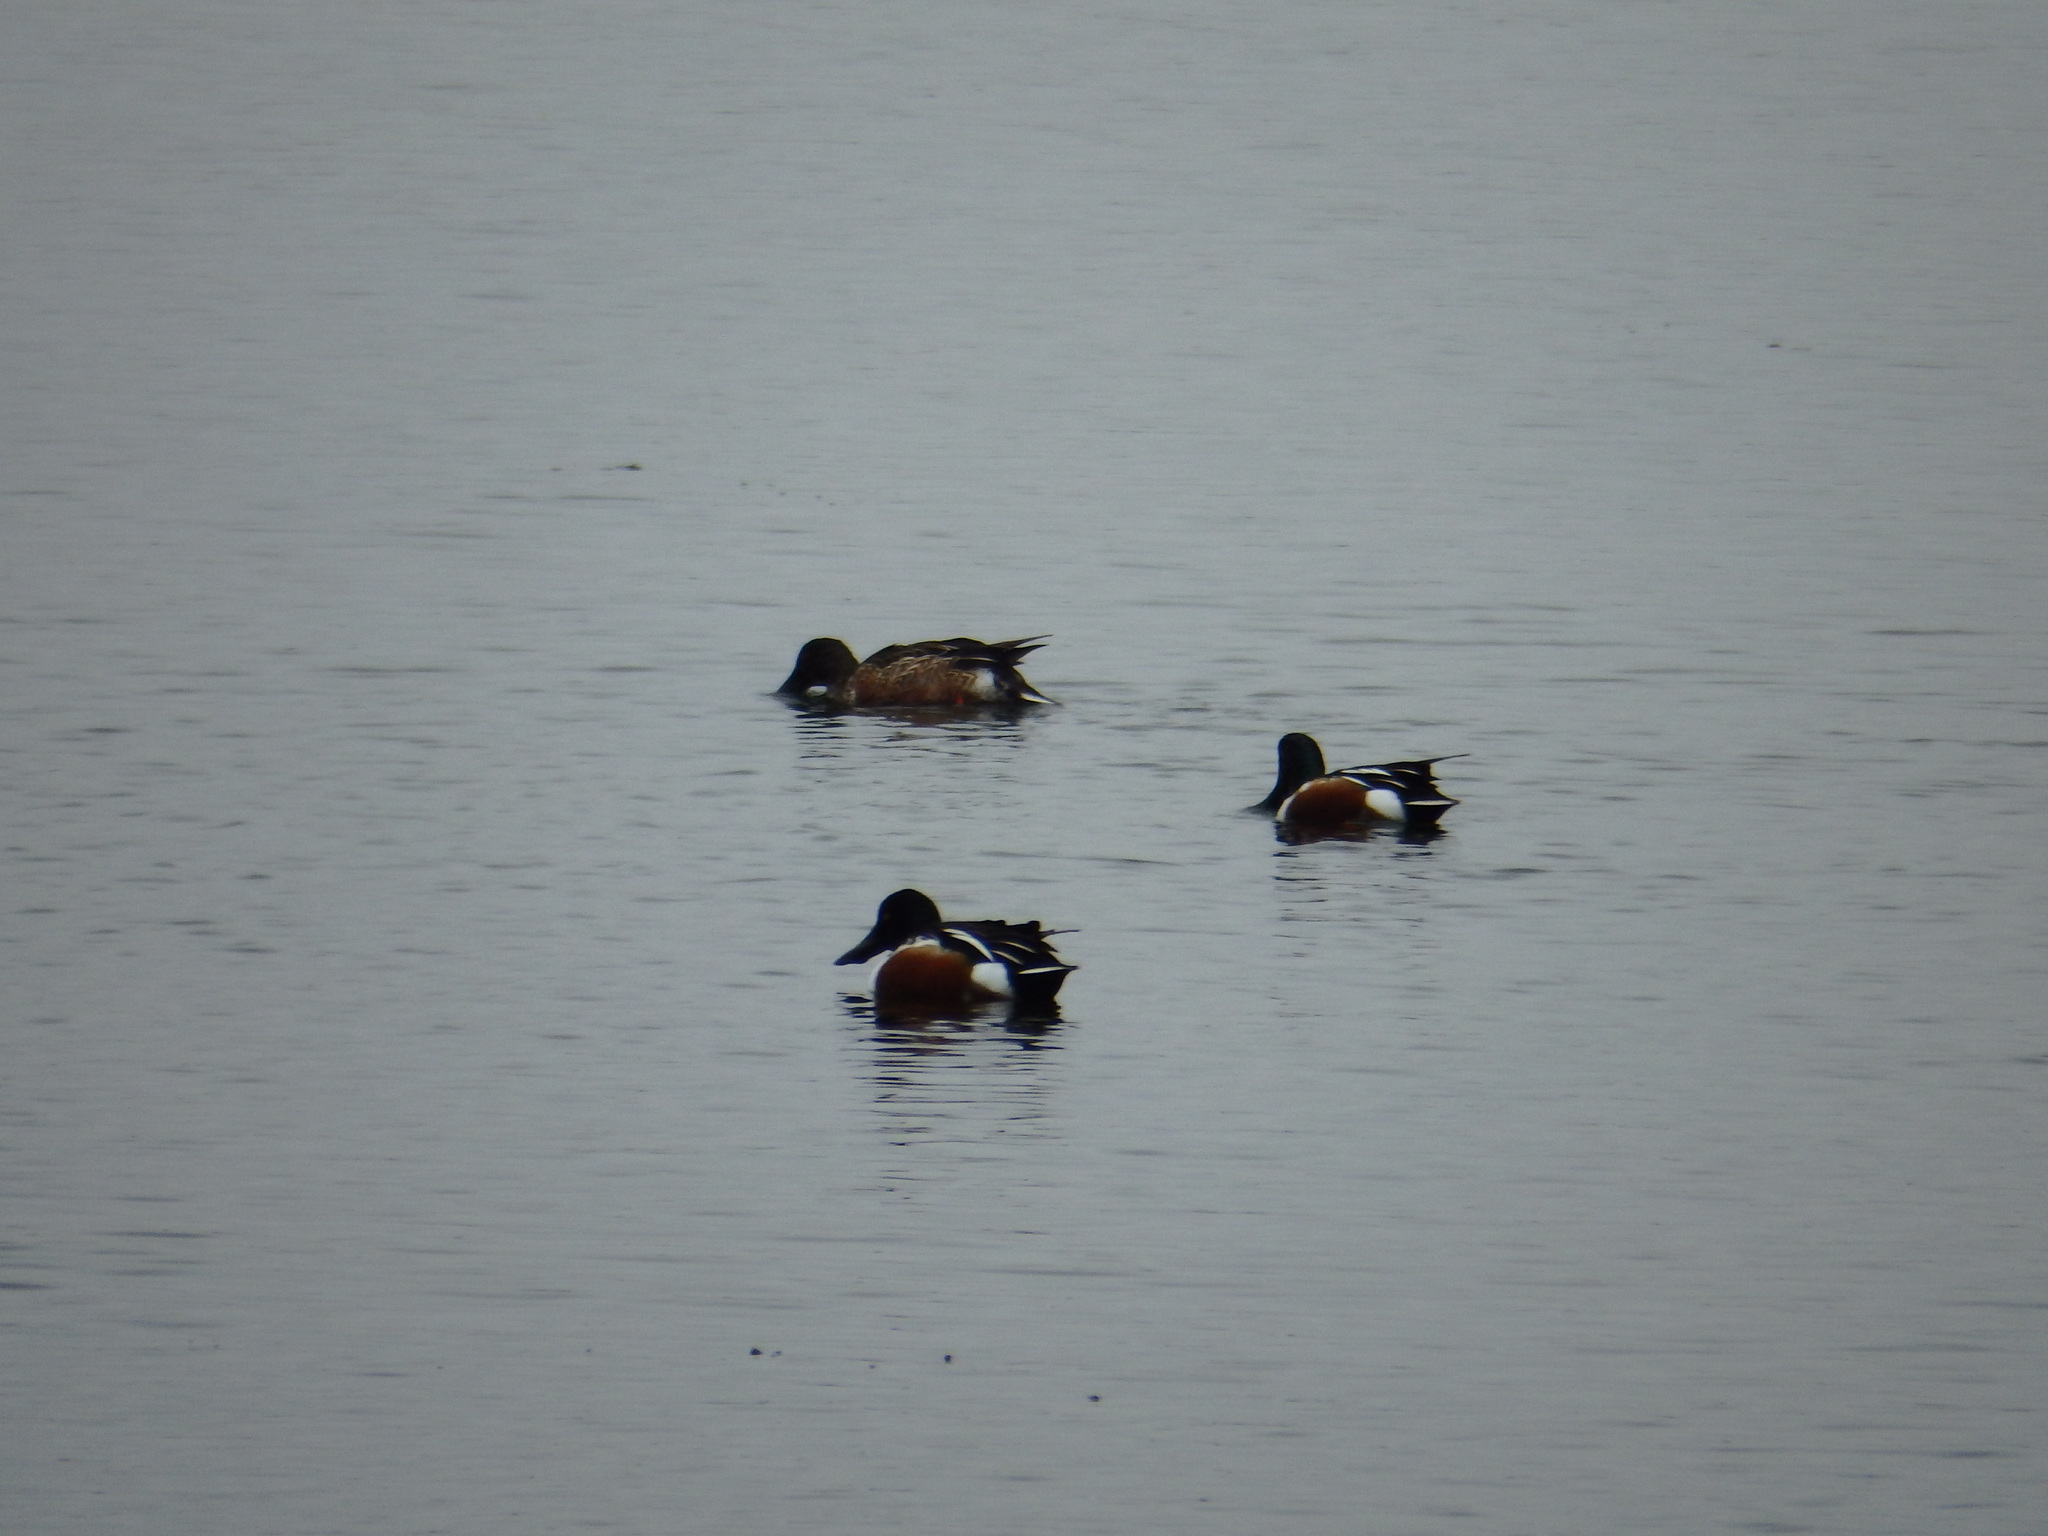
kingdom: Animalia
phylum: Chordata
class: Aves
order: Anseriformes
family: Anatidae
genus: Spatula
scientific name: Spatula clypeata
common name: Northern shoveler
